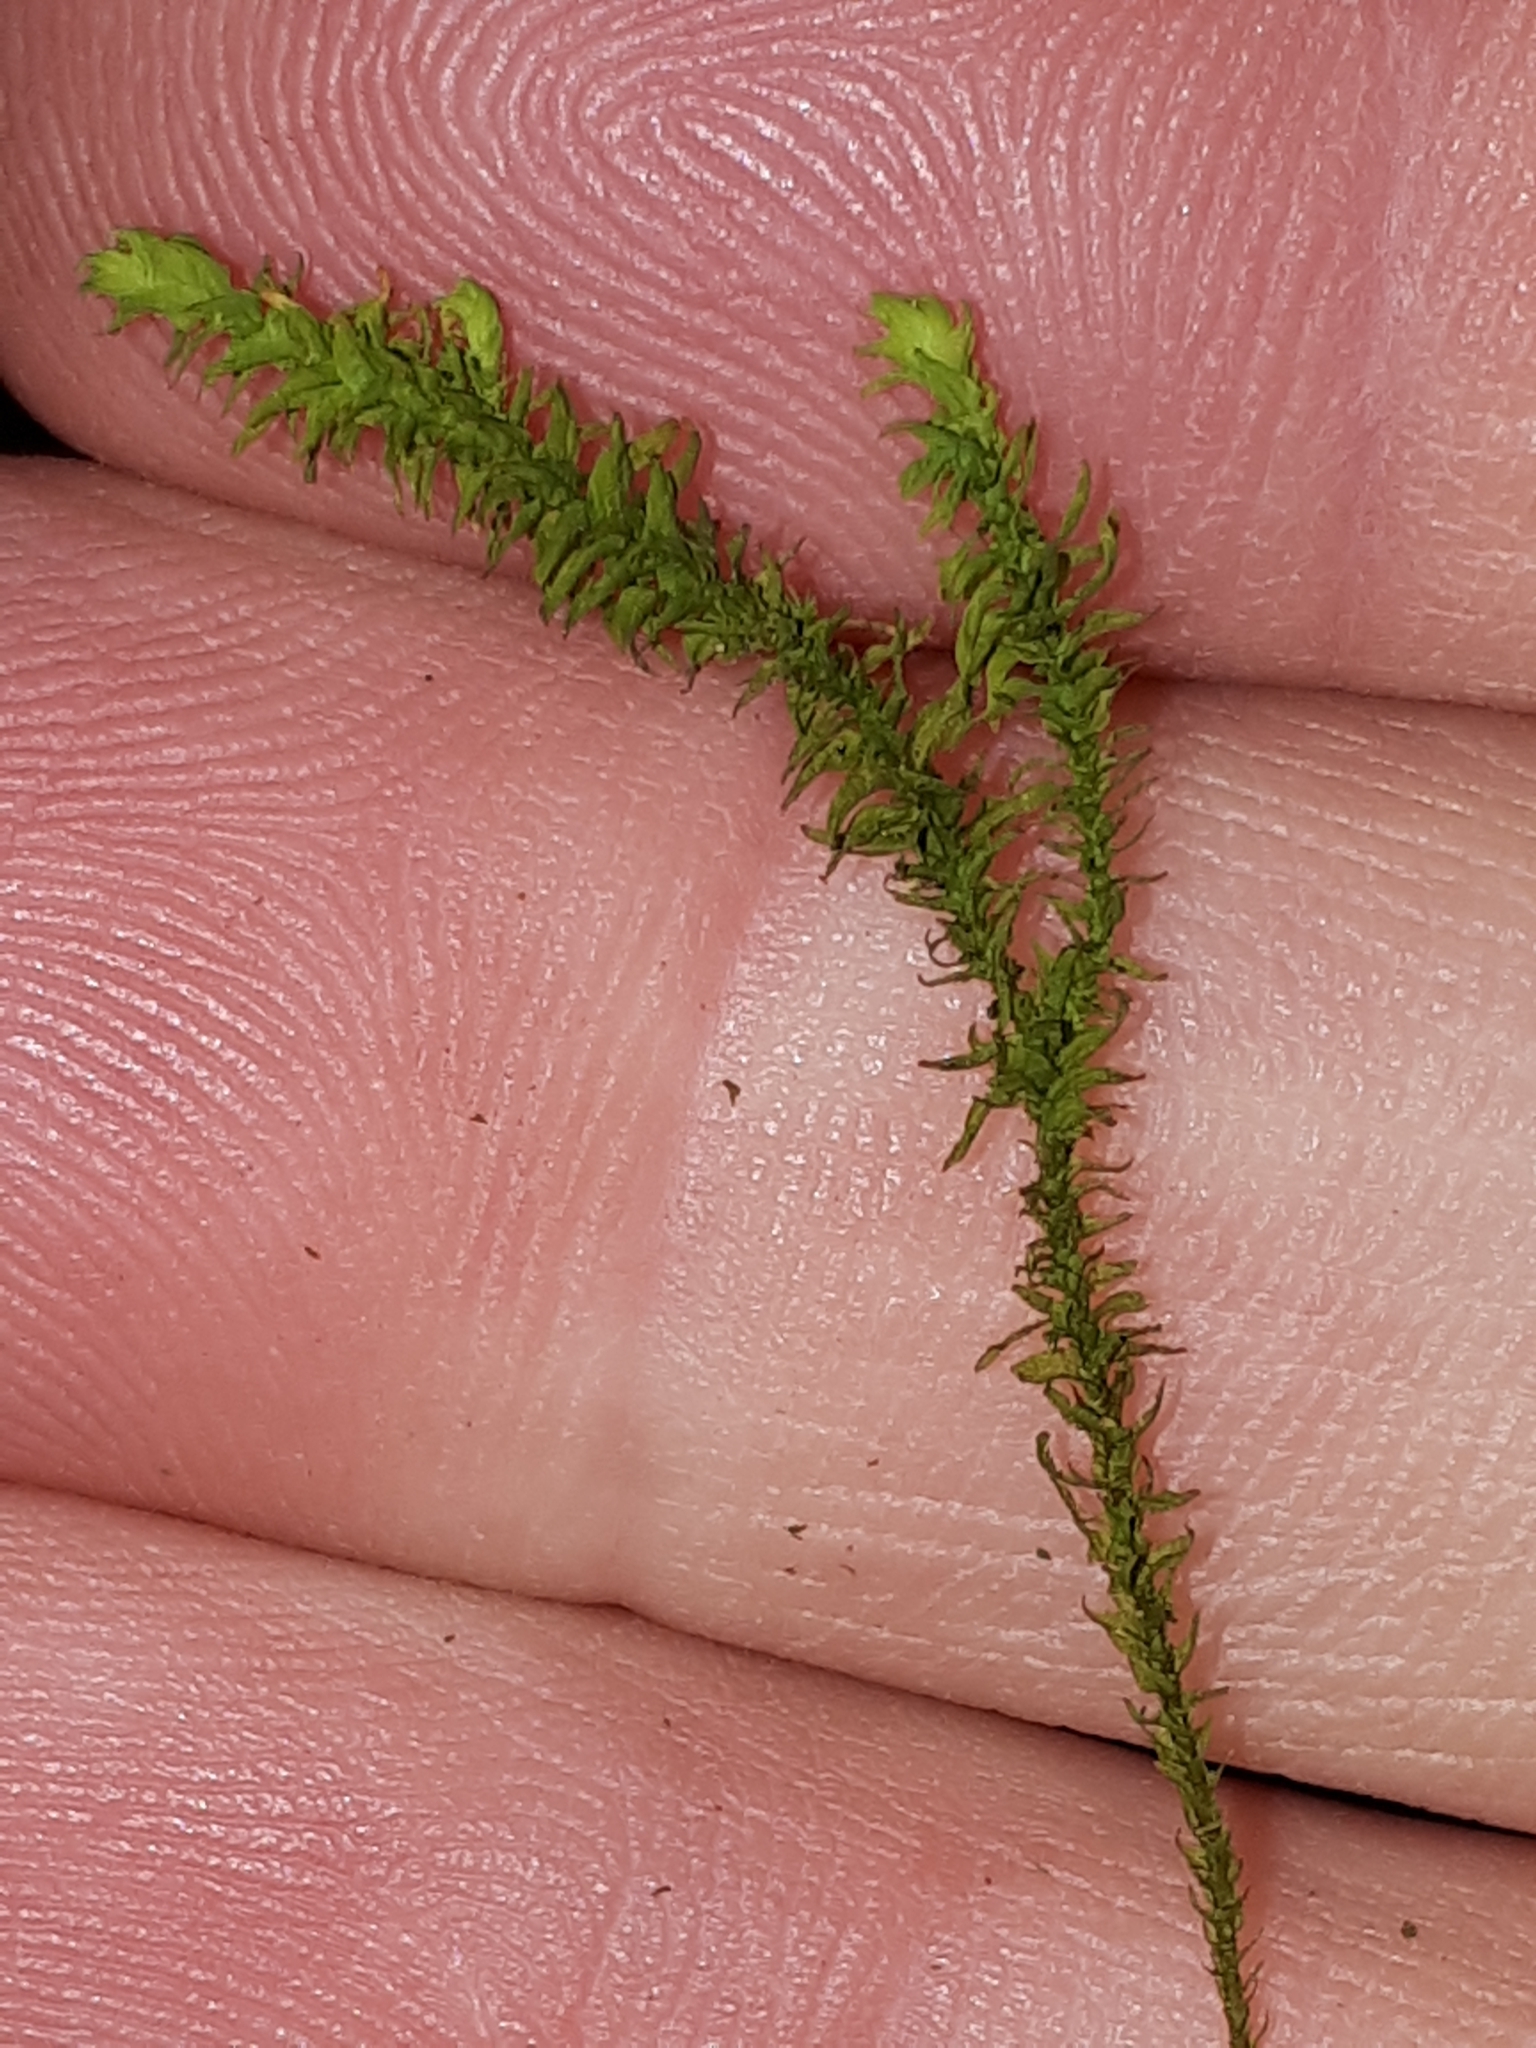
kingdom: Plantae
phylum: Bryophyta
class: Bryopsida
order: Hypnales
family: Anomodontaceae
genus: Anomodon
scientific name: Anomodon viticulosus
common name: Tall anomodon
